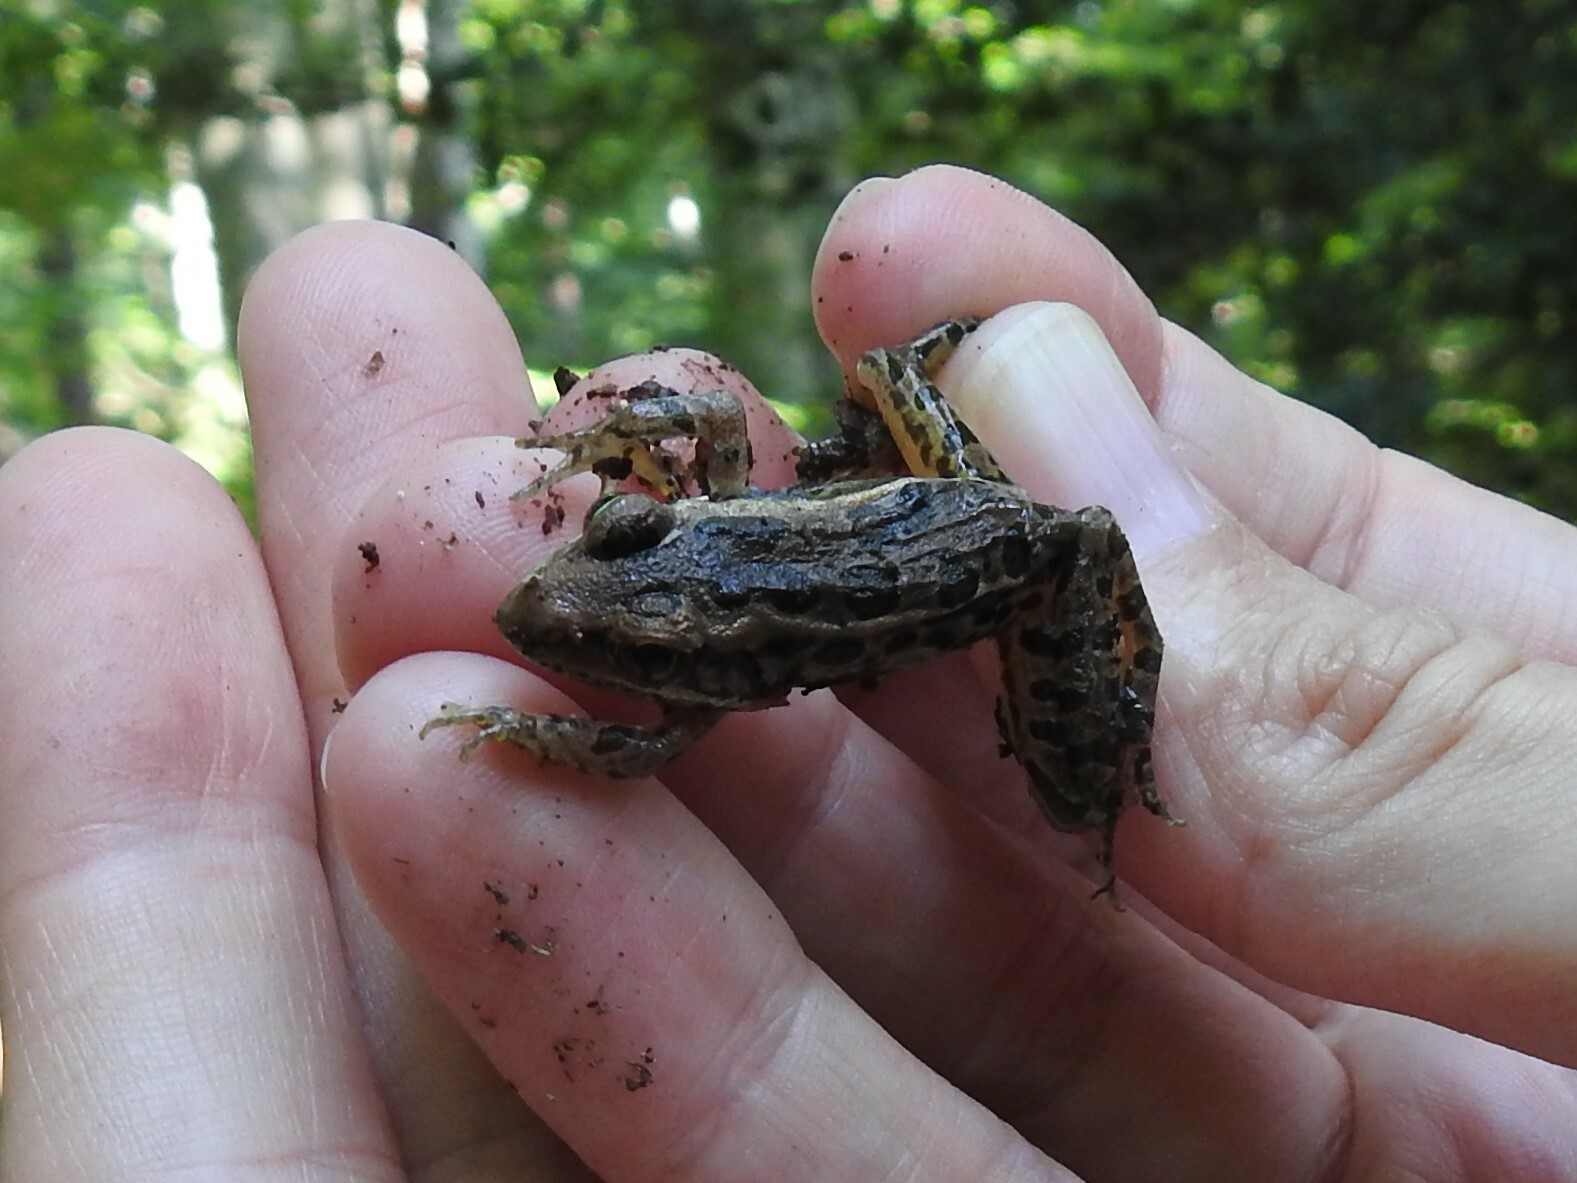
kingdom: Animalia
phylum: Chordata
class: Amphibia
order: Anura
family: Ranidae
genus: Lithobates
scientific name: Lithobates palustris
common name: Pickerel frog
